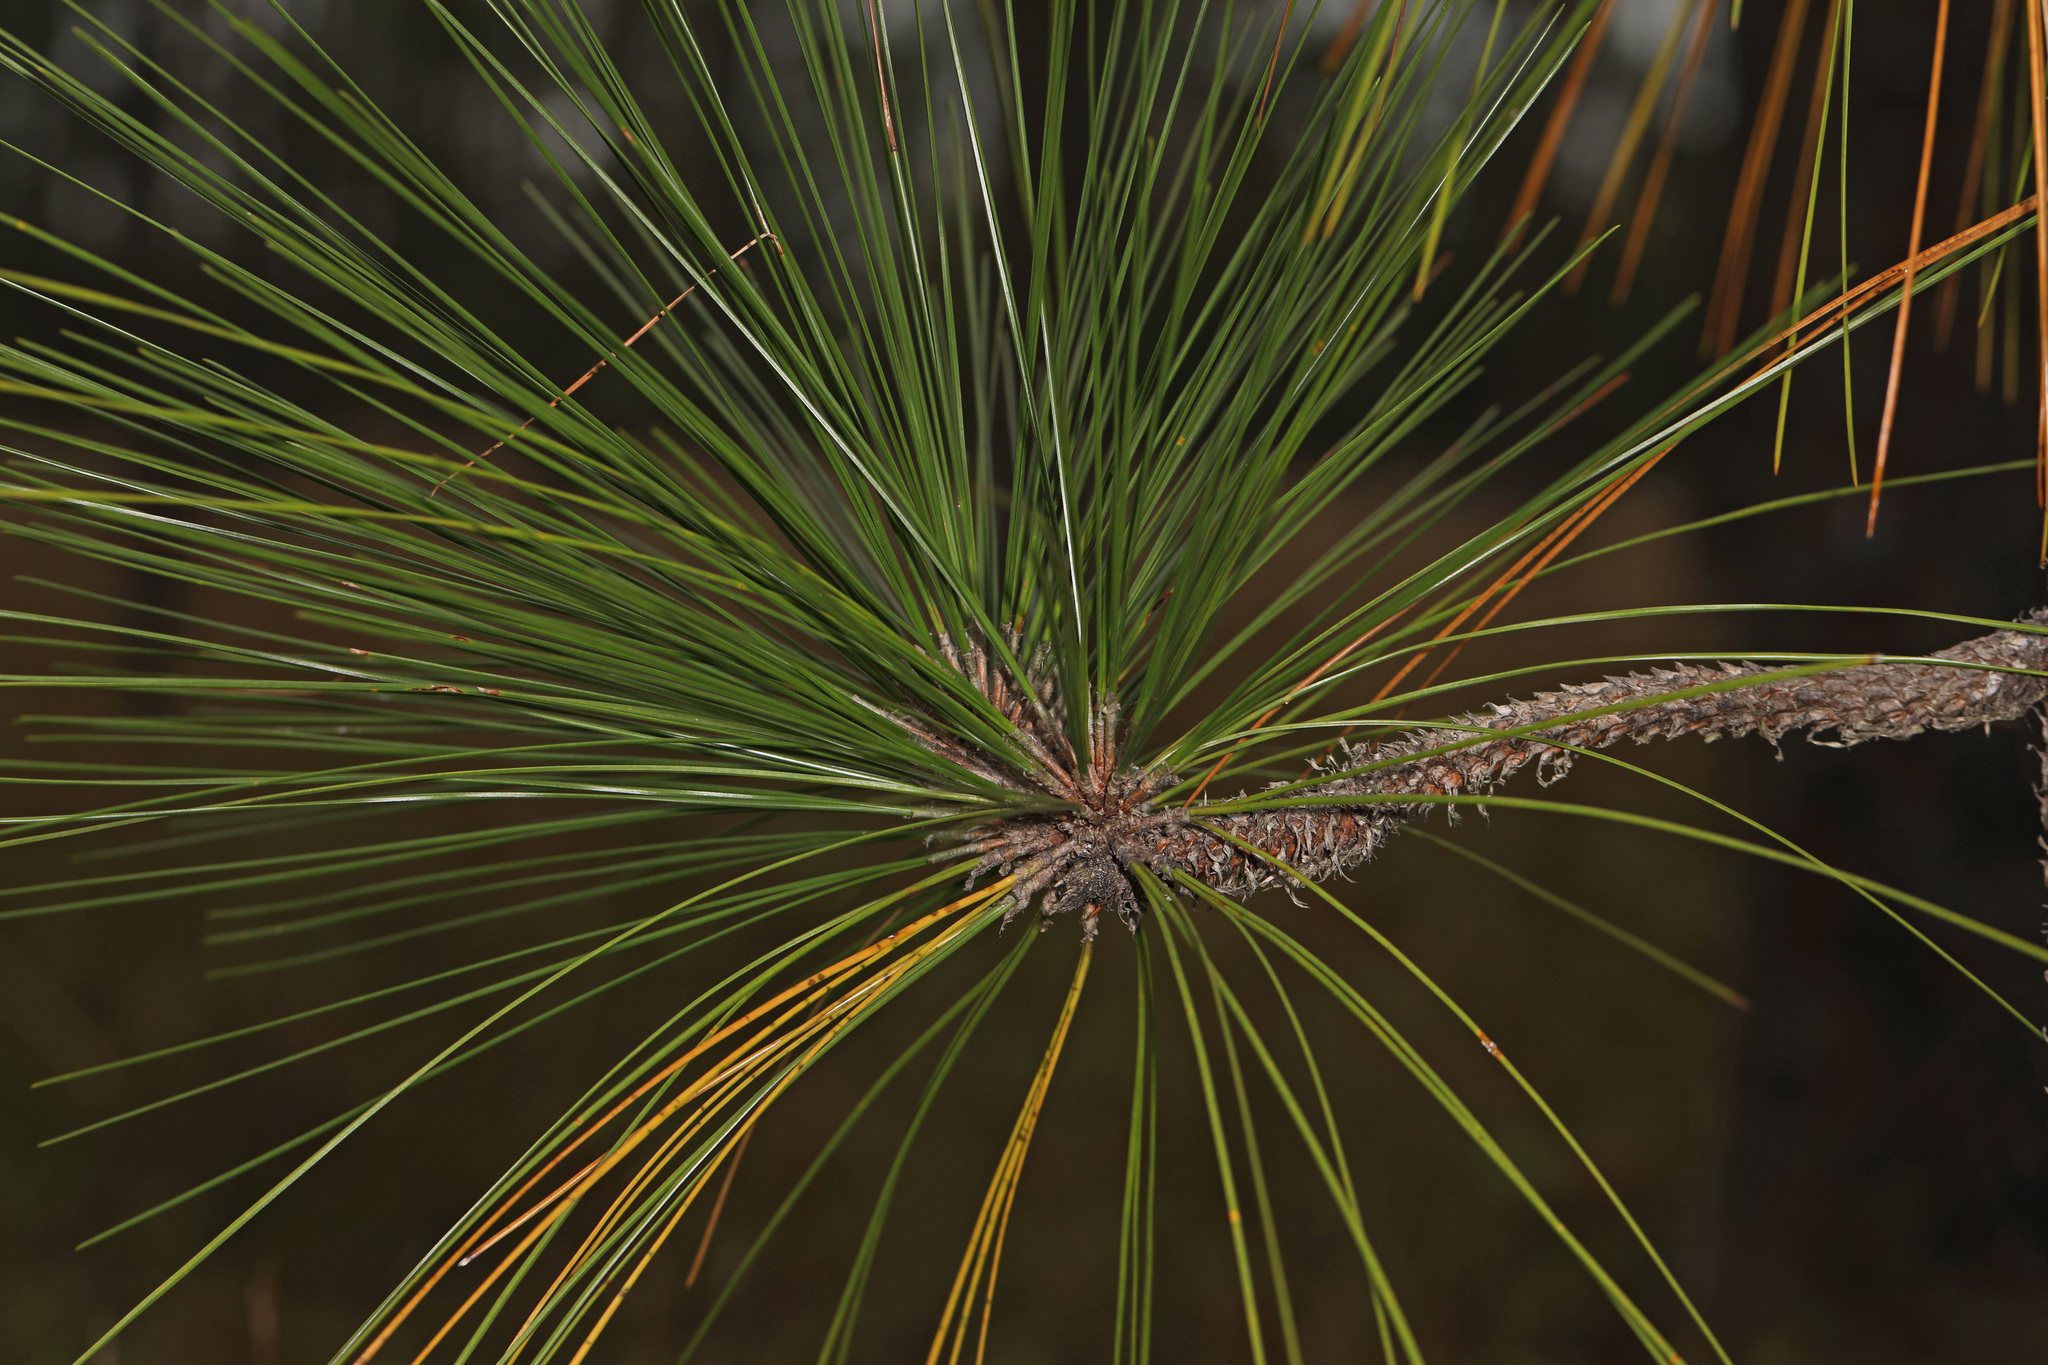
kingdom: Plantae
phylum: Tracheophyta
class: Pinopsida
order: Pinales
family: Pinaceae
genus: Pinus
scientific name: Pinus palustris
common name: Longleaf pine
